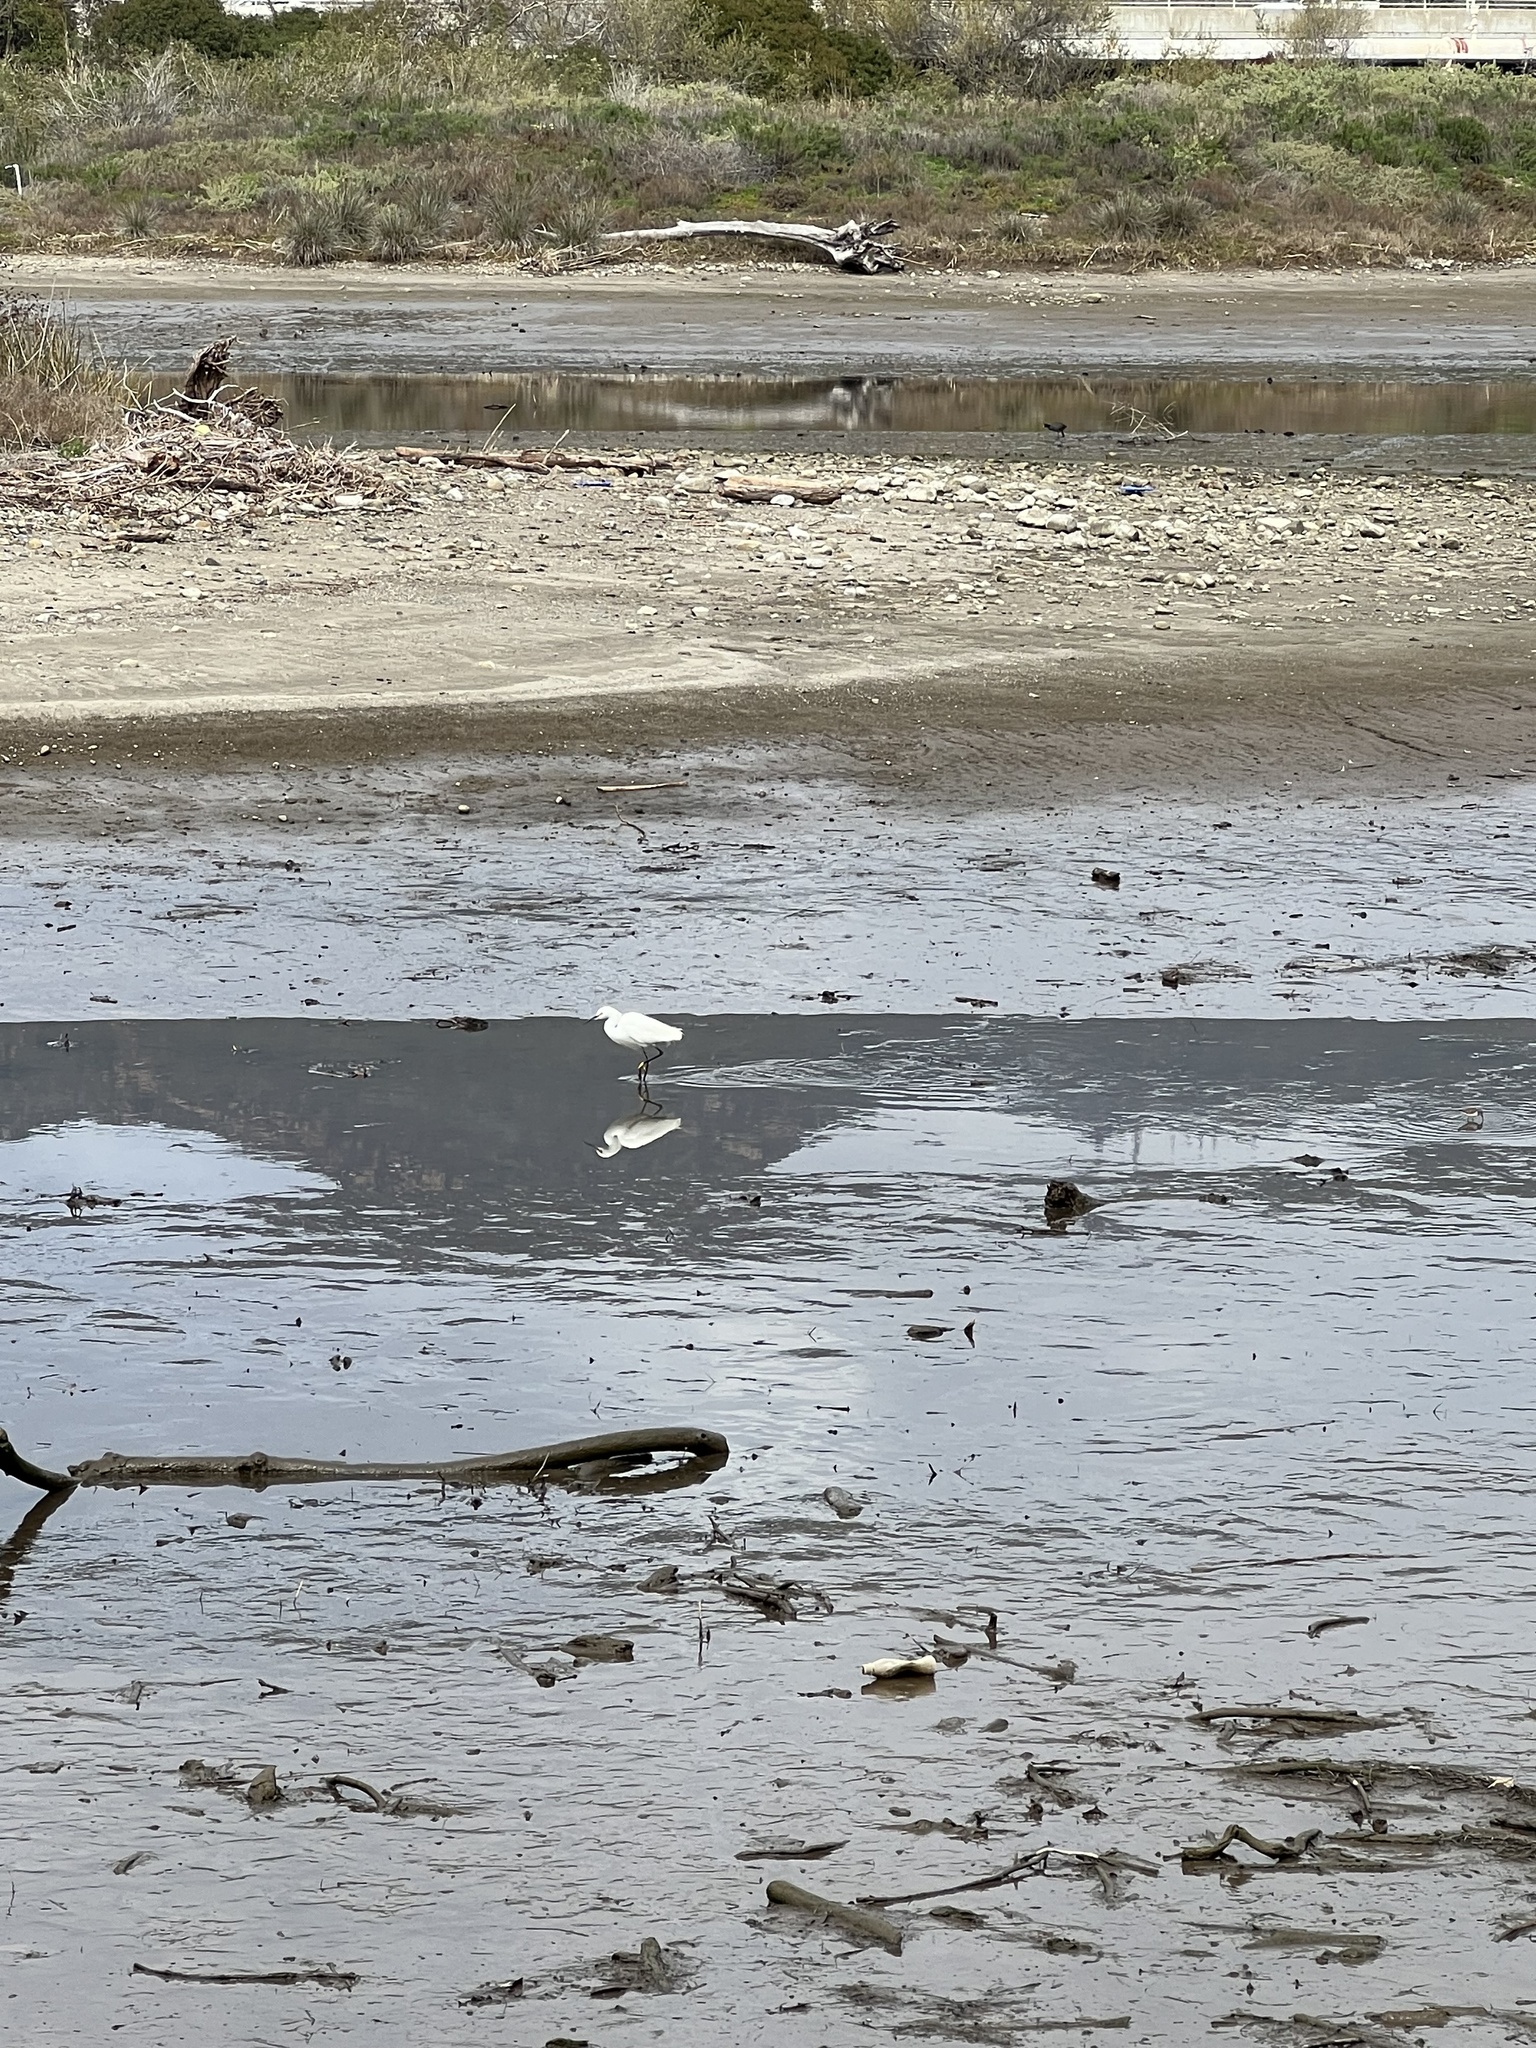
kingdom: Animalia
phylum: Chordata
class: Aves
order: Pelecaniformes
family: Ardeidae
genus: Egretta
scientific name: Egretta thula
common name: Snowy egret
